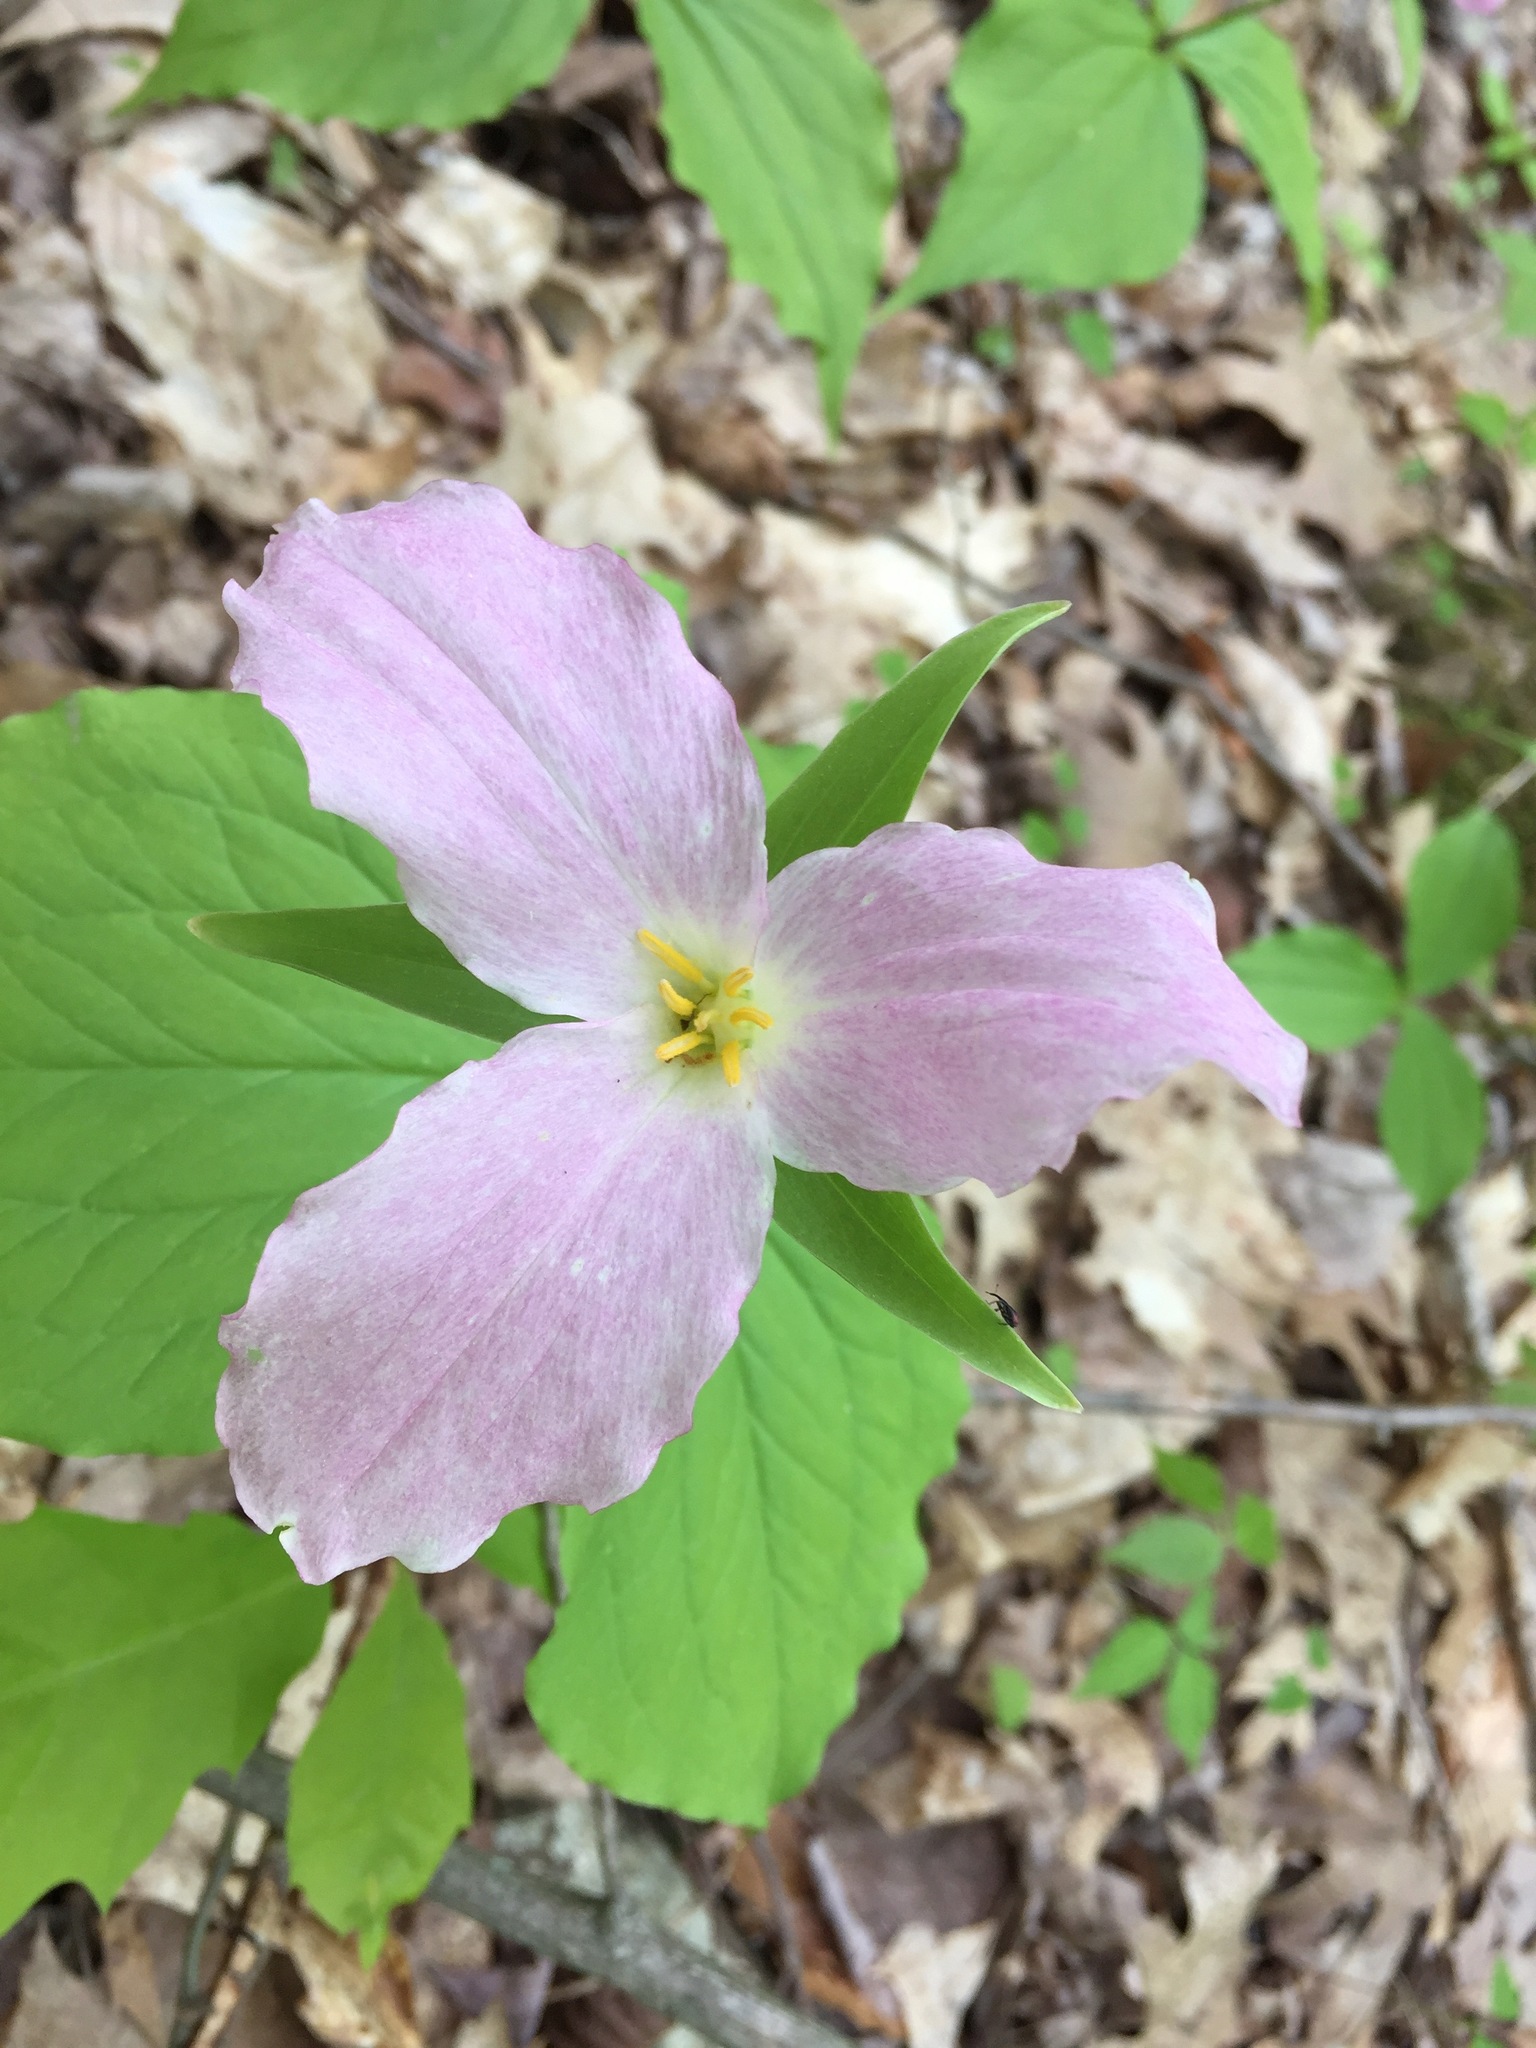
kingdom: Plantae
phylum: Tracheophyta
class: Liliopsida
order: Liliales
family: Melanthiaceae
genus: Trillium
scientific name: Trillium grandiflorum
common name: Great white trillium
